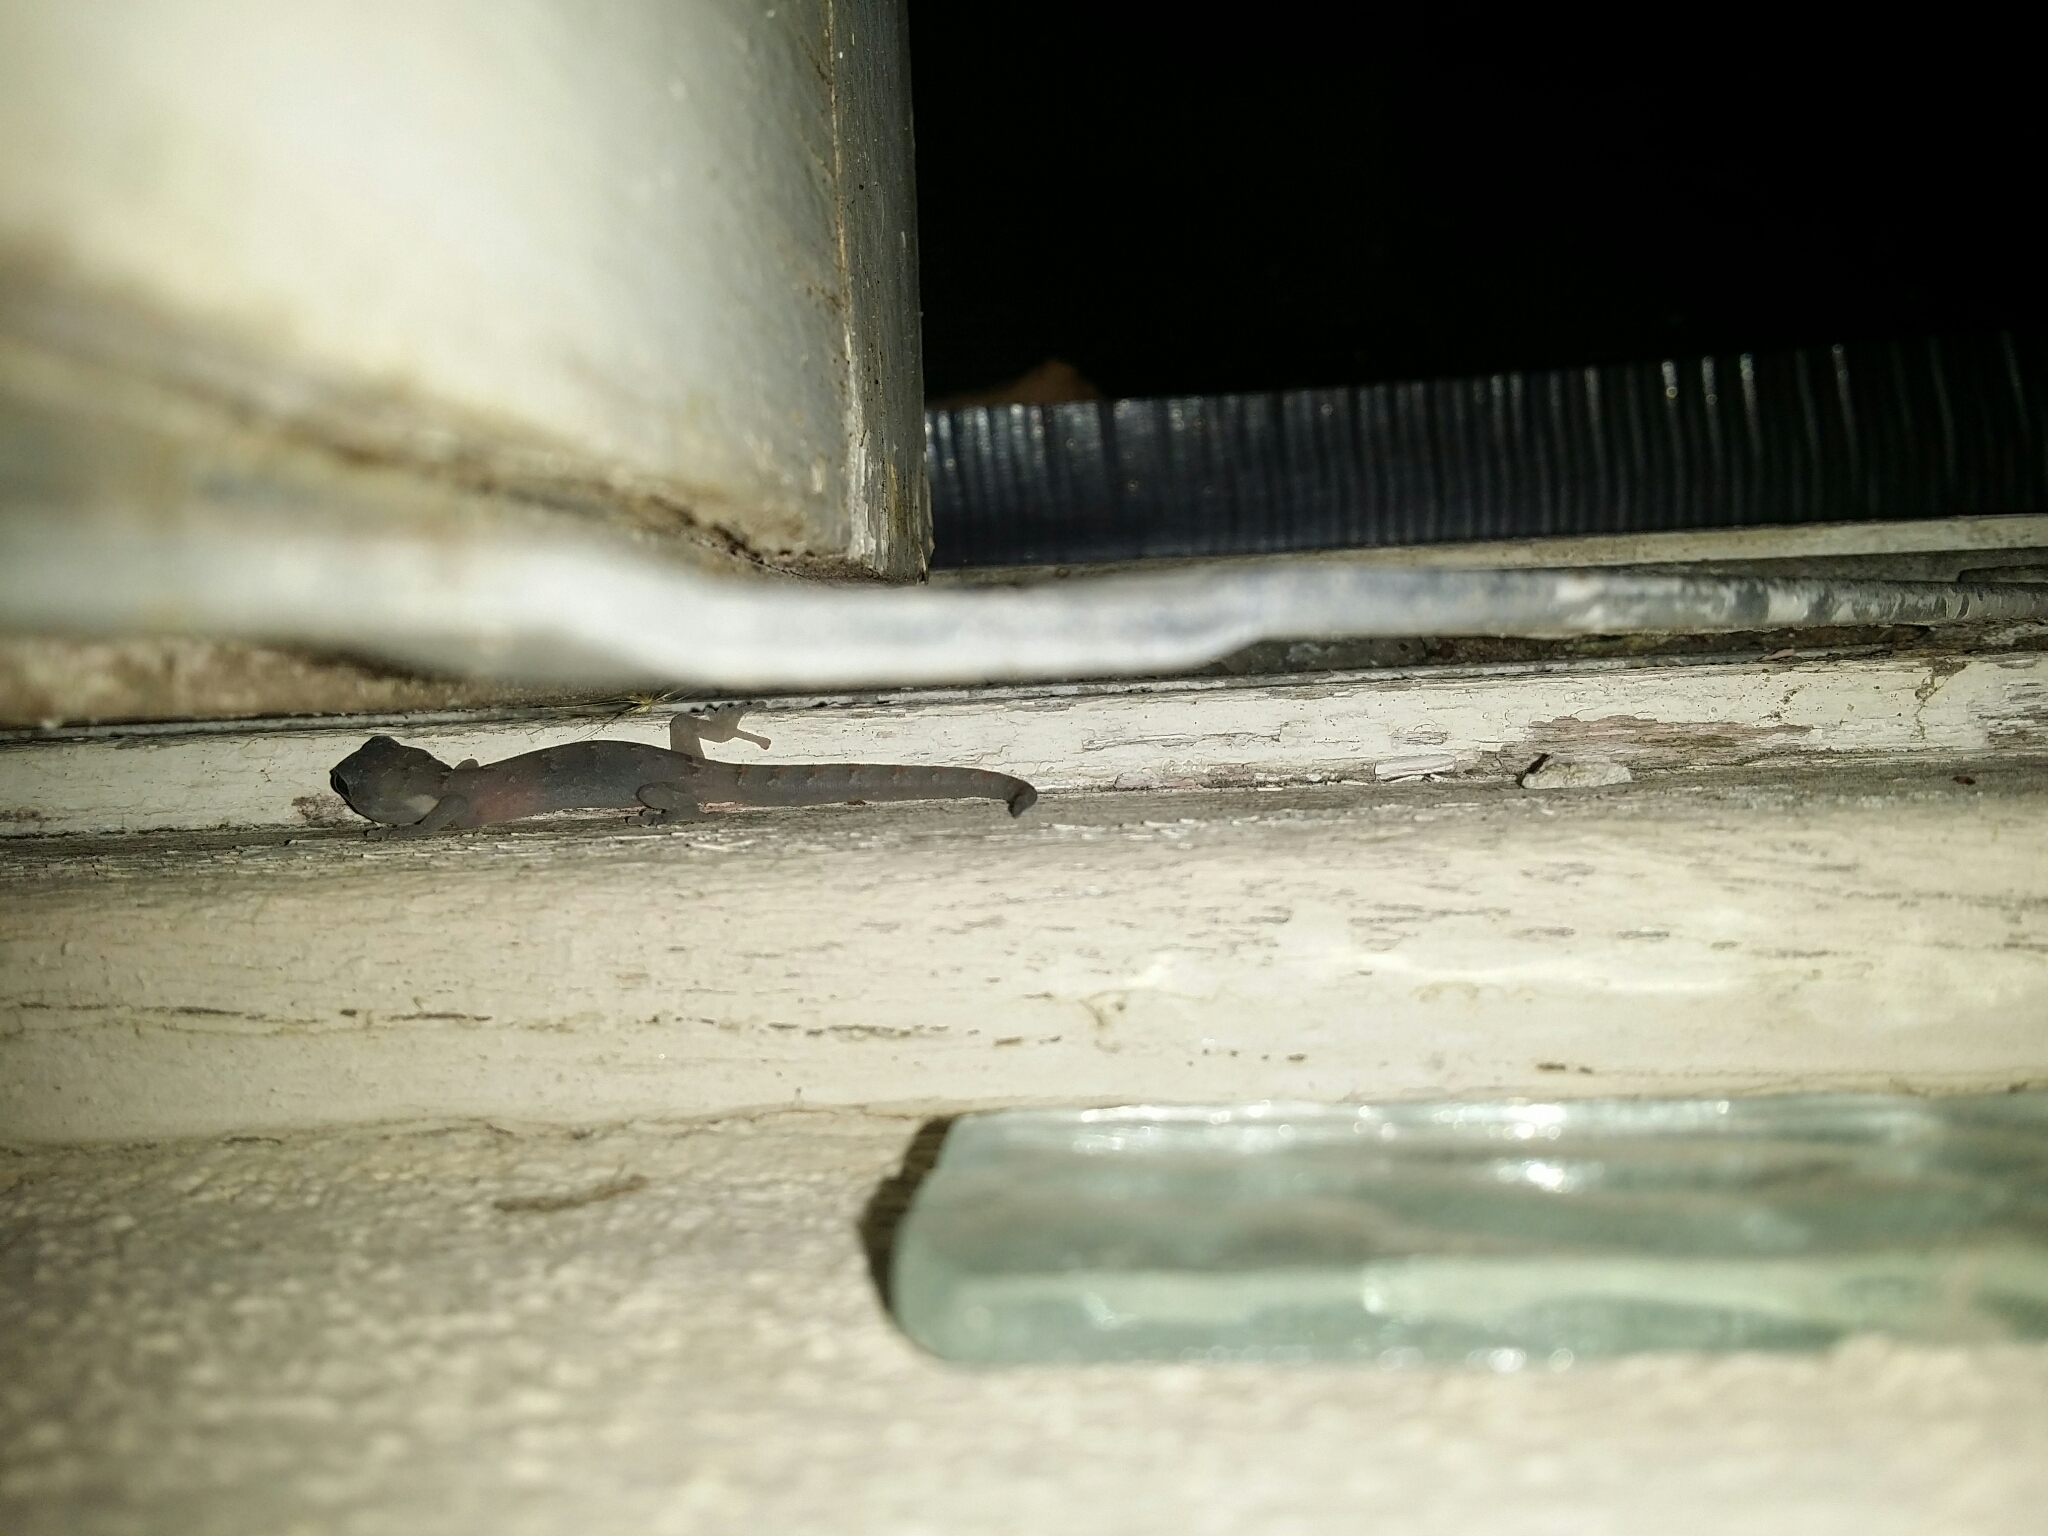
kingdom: Animalia
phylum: Chordata
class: Squamata
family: Gekkonidae
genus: Christinus
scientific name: Christinus marmoratus
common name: Marbled gecko
